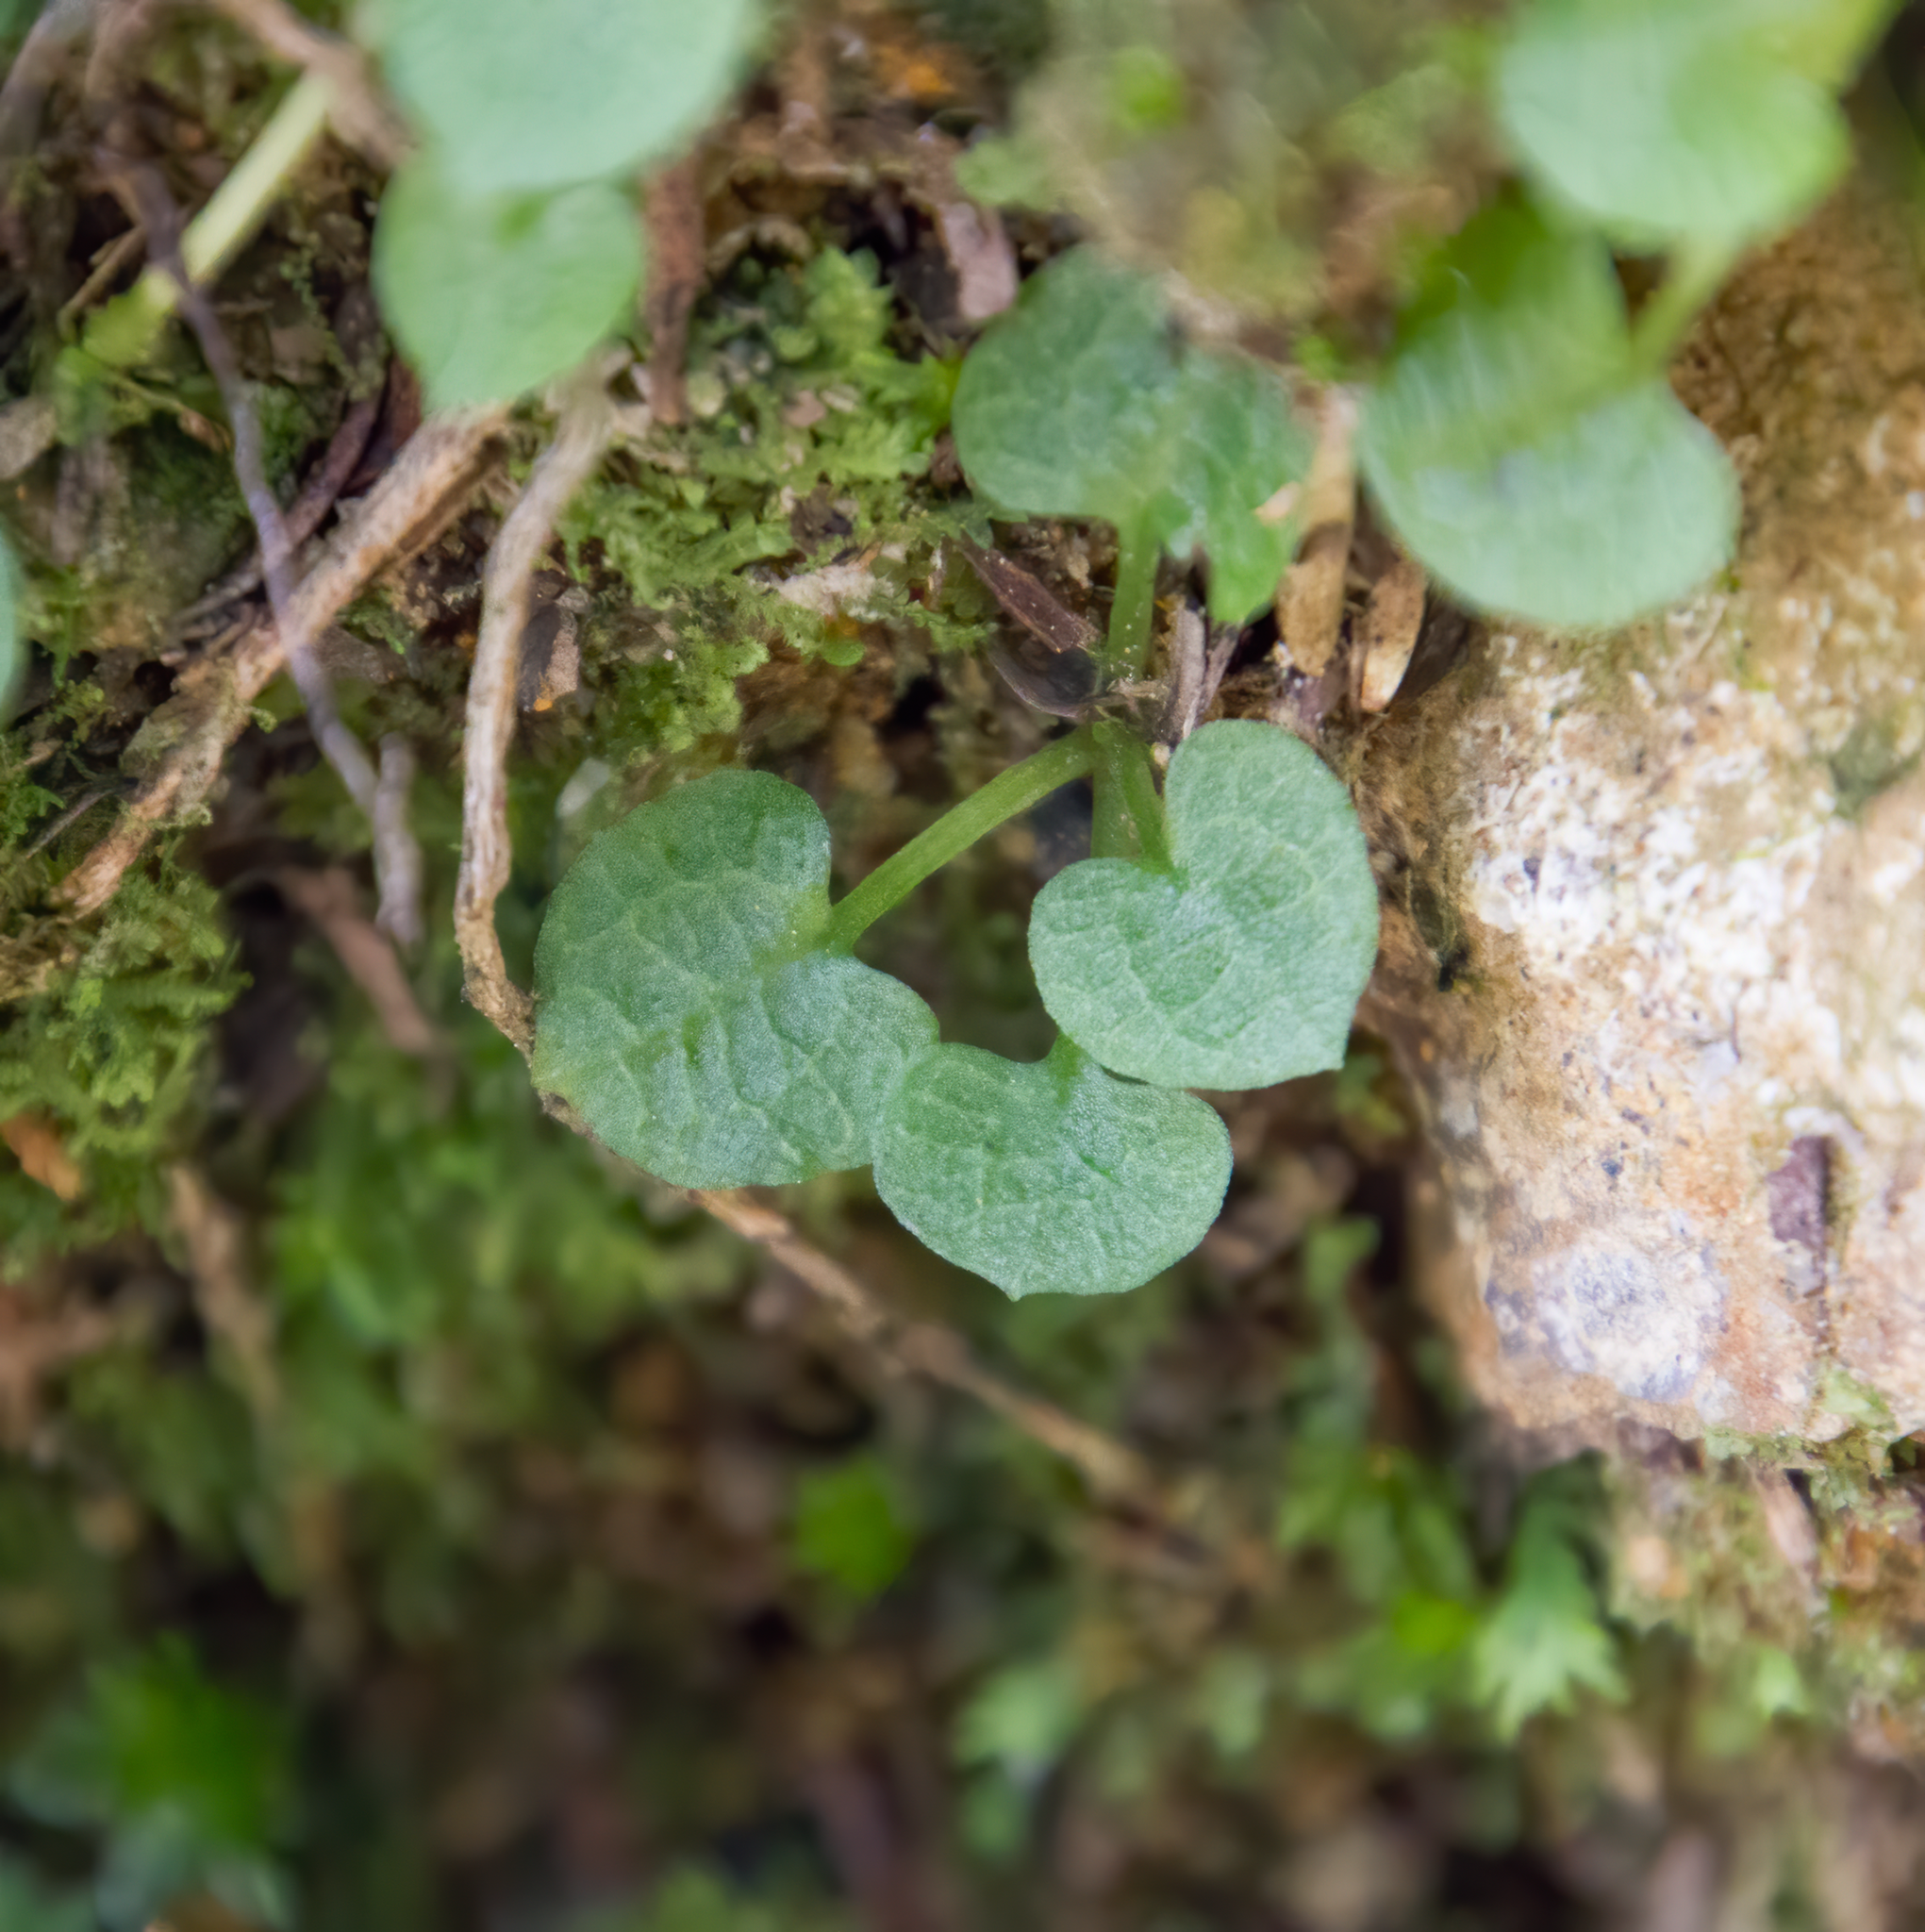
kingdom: Plantae
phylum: Tracheophyta
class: Liliopsida
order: Asparagales
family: Orchidaceae
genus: Pterostylis
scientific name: Pterostylis trullifolia
